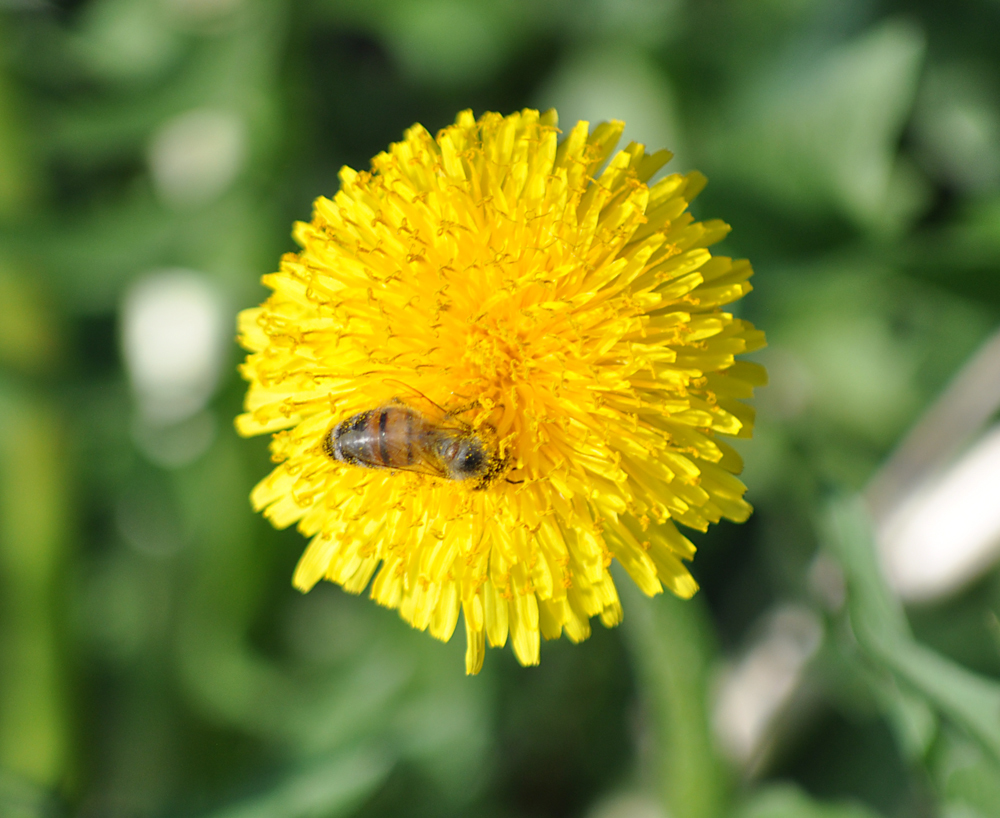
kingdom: Plantae
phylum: Tracheophyta
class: Magnoliopsida
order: Asterales
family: Asteraceae
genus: Taraxacum
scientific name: Taraxacum officinale
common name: Common dandelion
